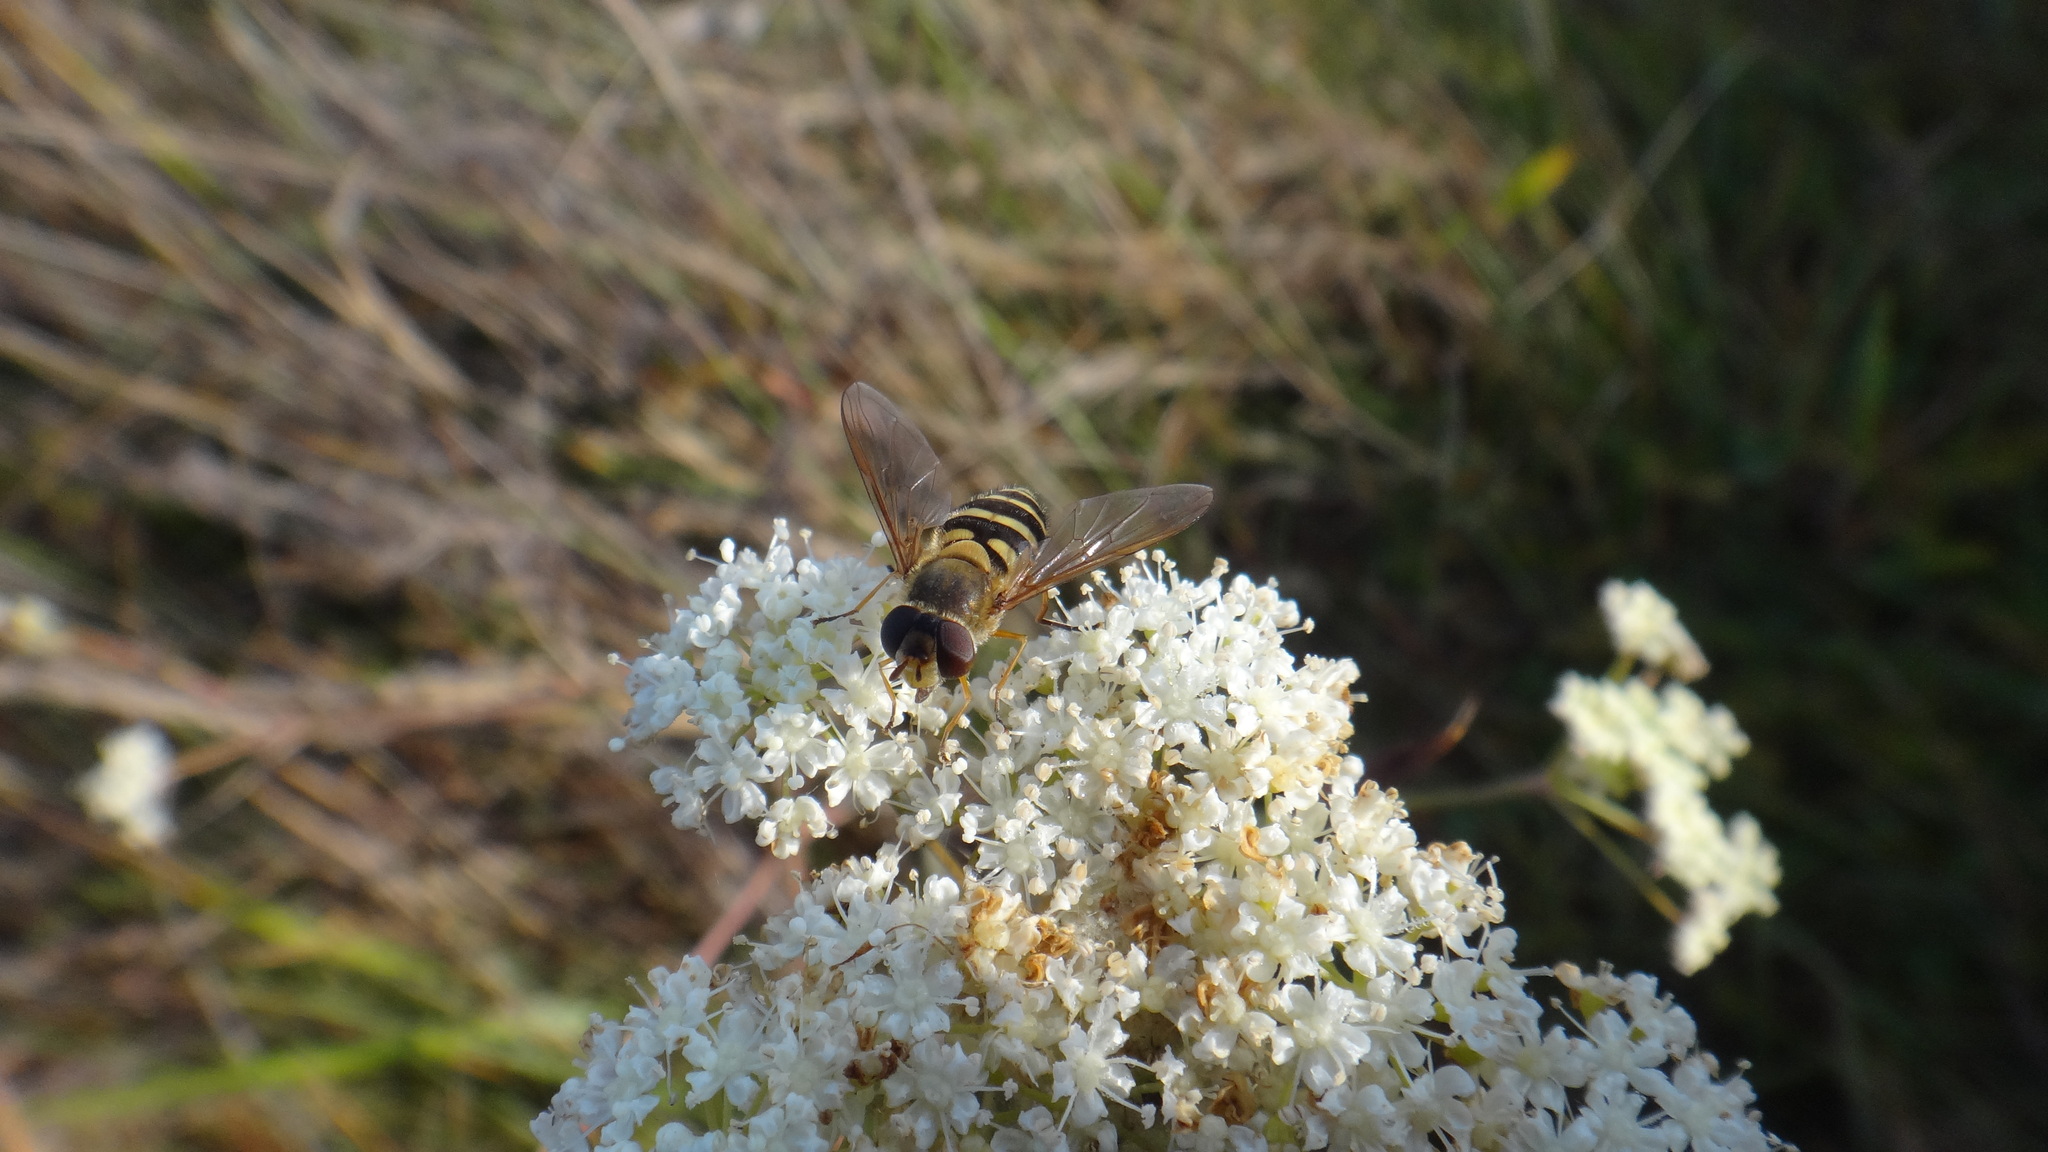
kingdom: Animalia
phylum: Arthropoda
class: Insecta
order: Diptera
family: Syrphidae
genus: Syrphus
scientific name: Syrphus
